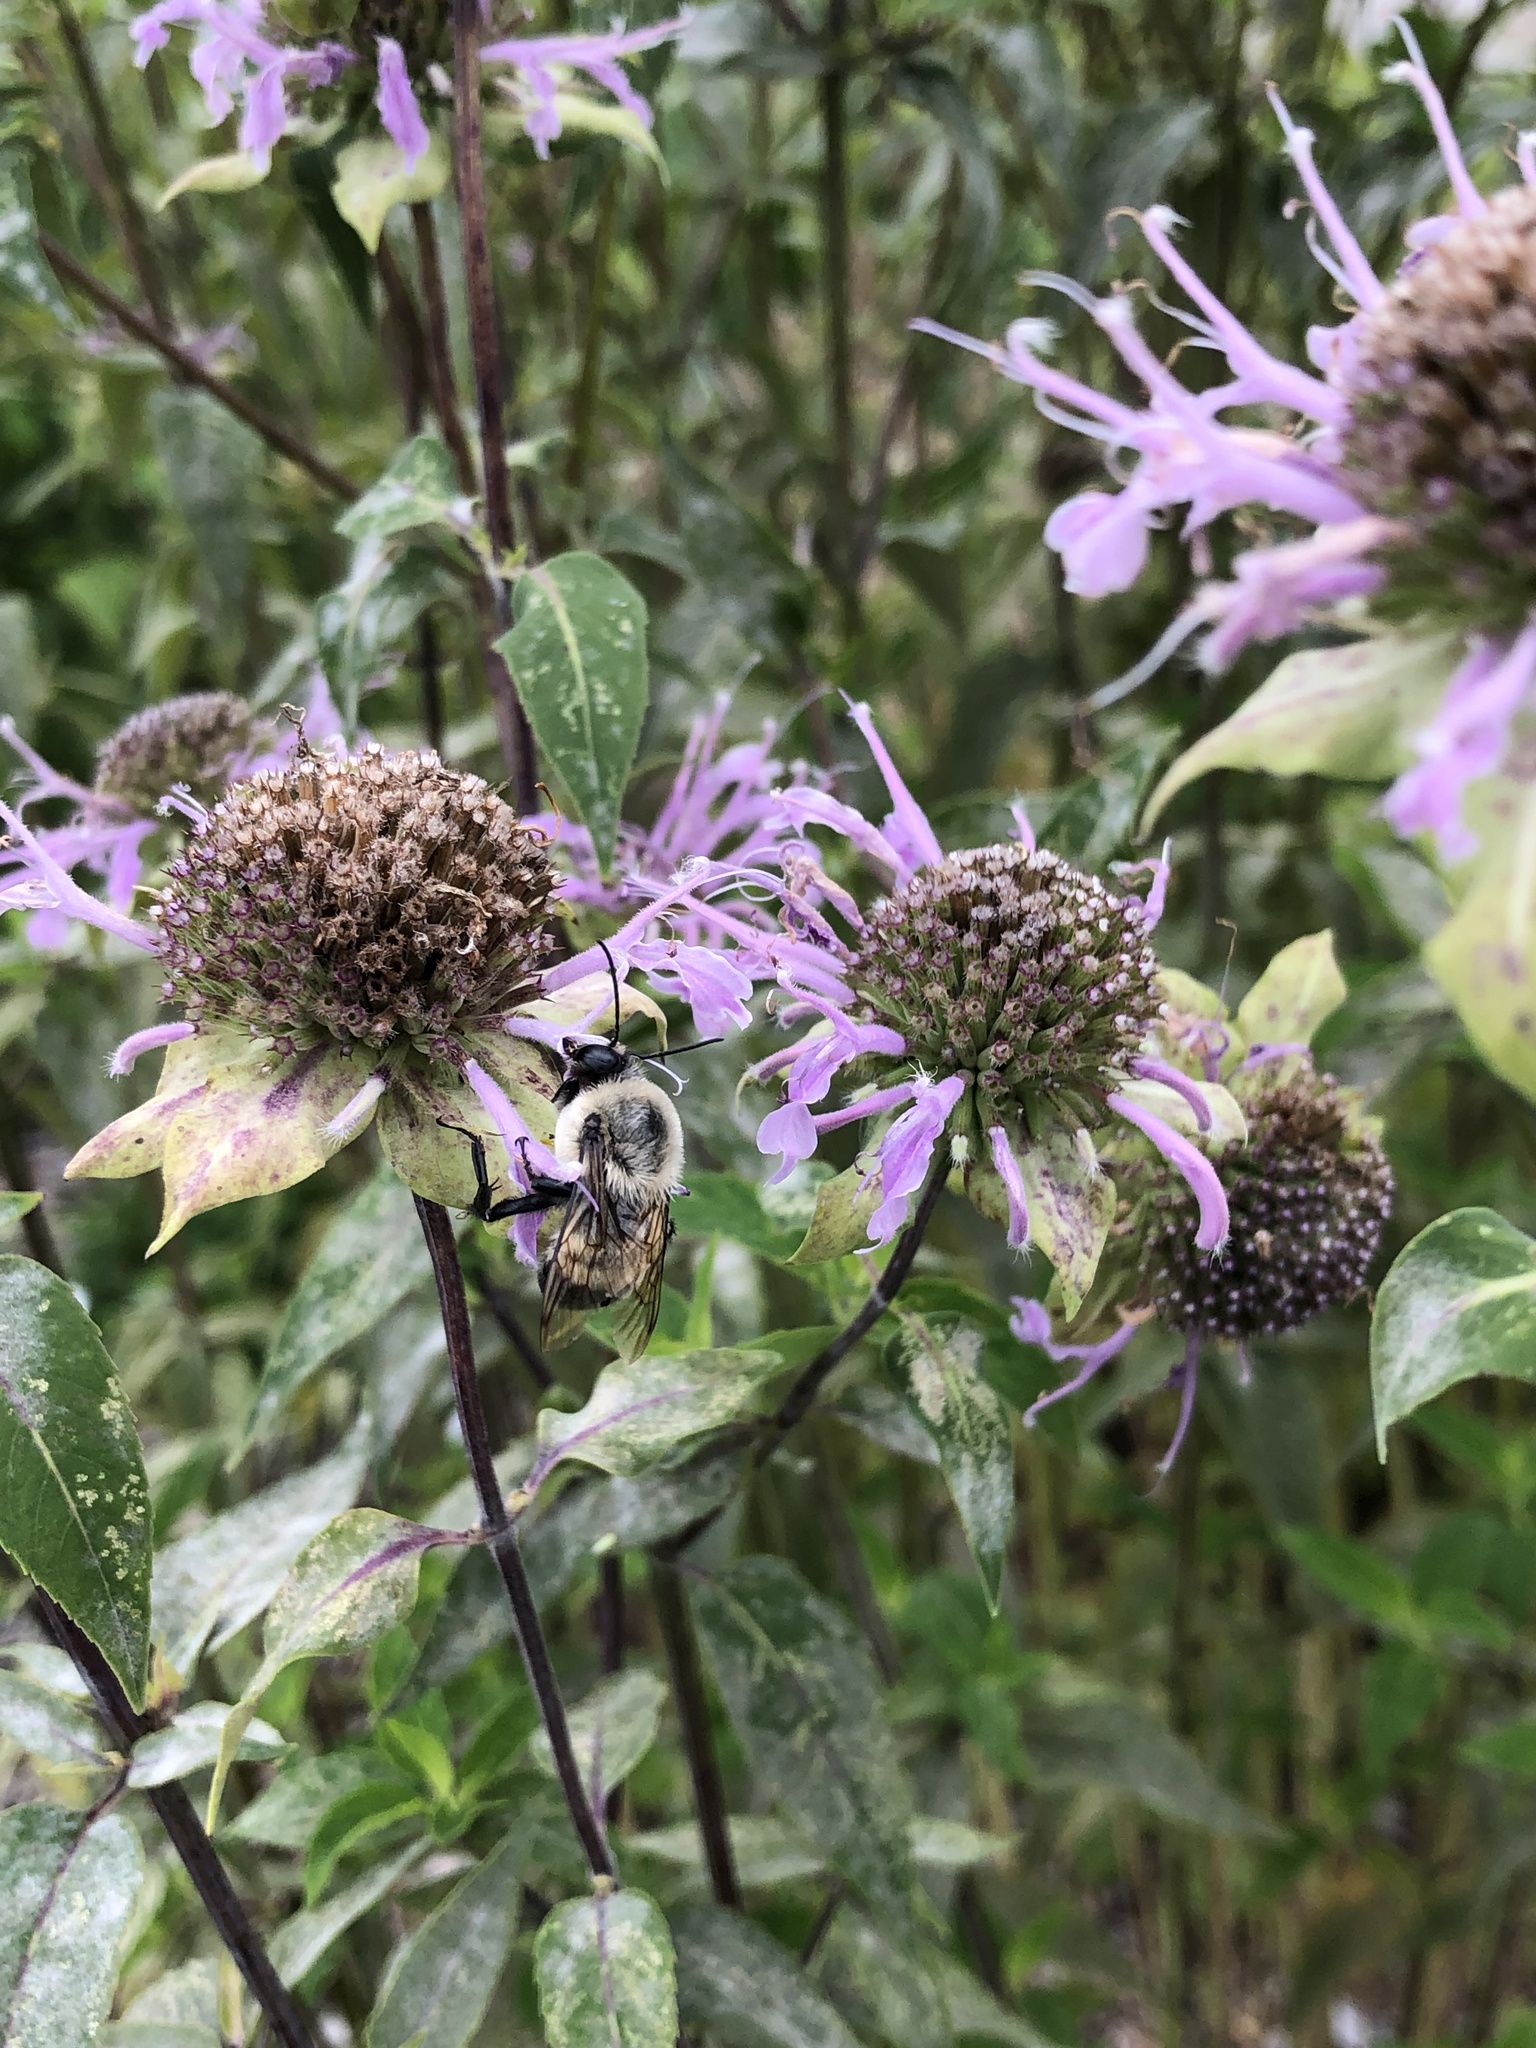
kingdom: Animalia
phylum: Arthropoda
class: Insecta
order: Hymenoptera
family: Apidae
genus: Bombus
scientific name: Bombus griseocollis
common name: Brown-belted bumble bee
